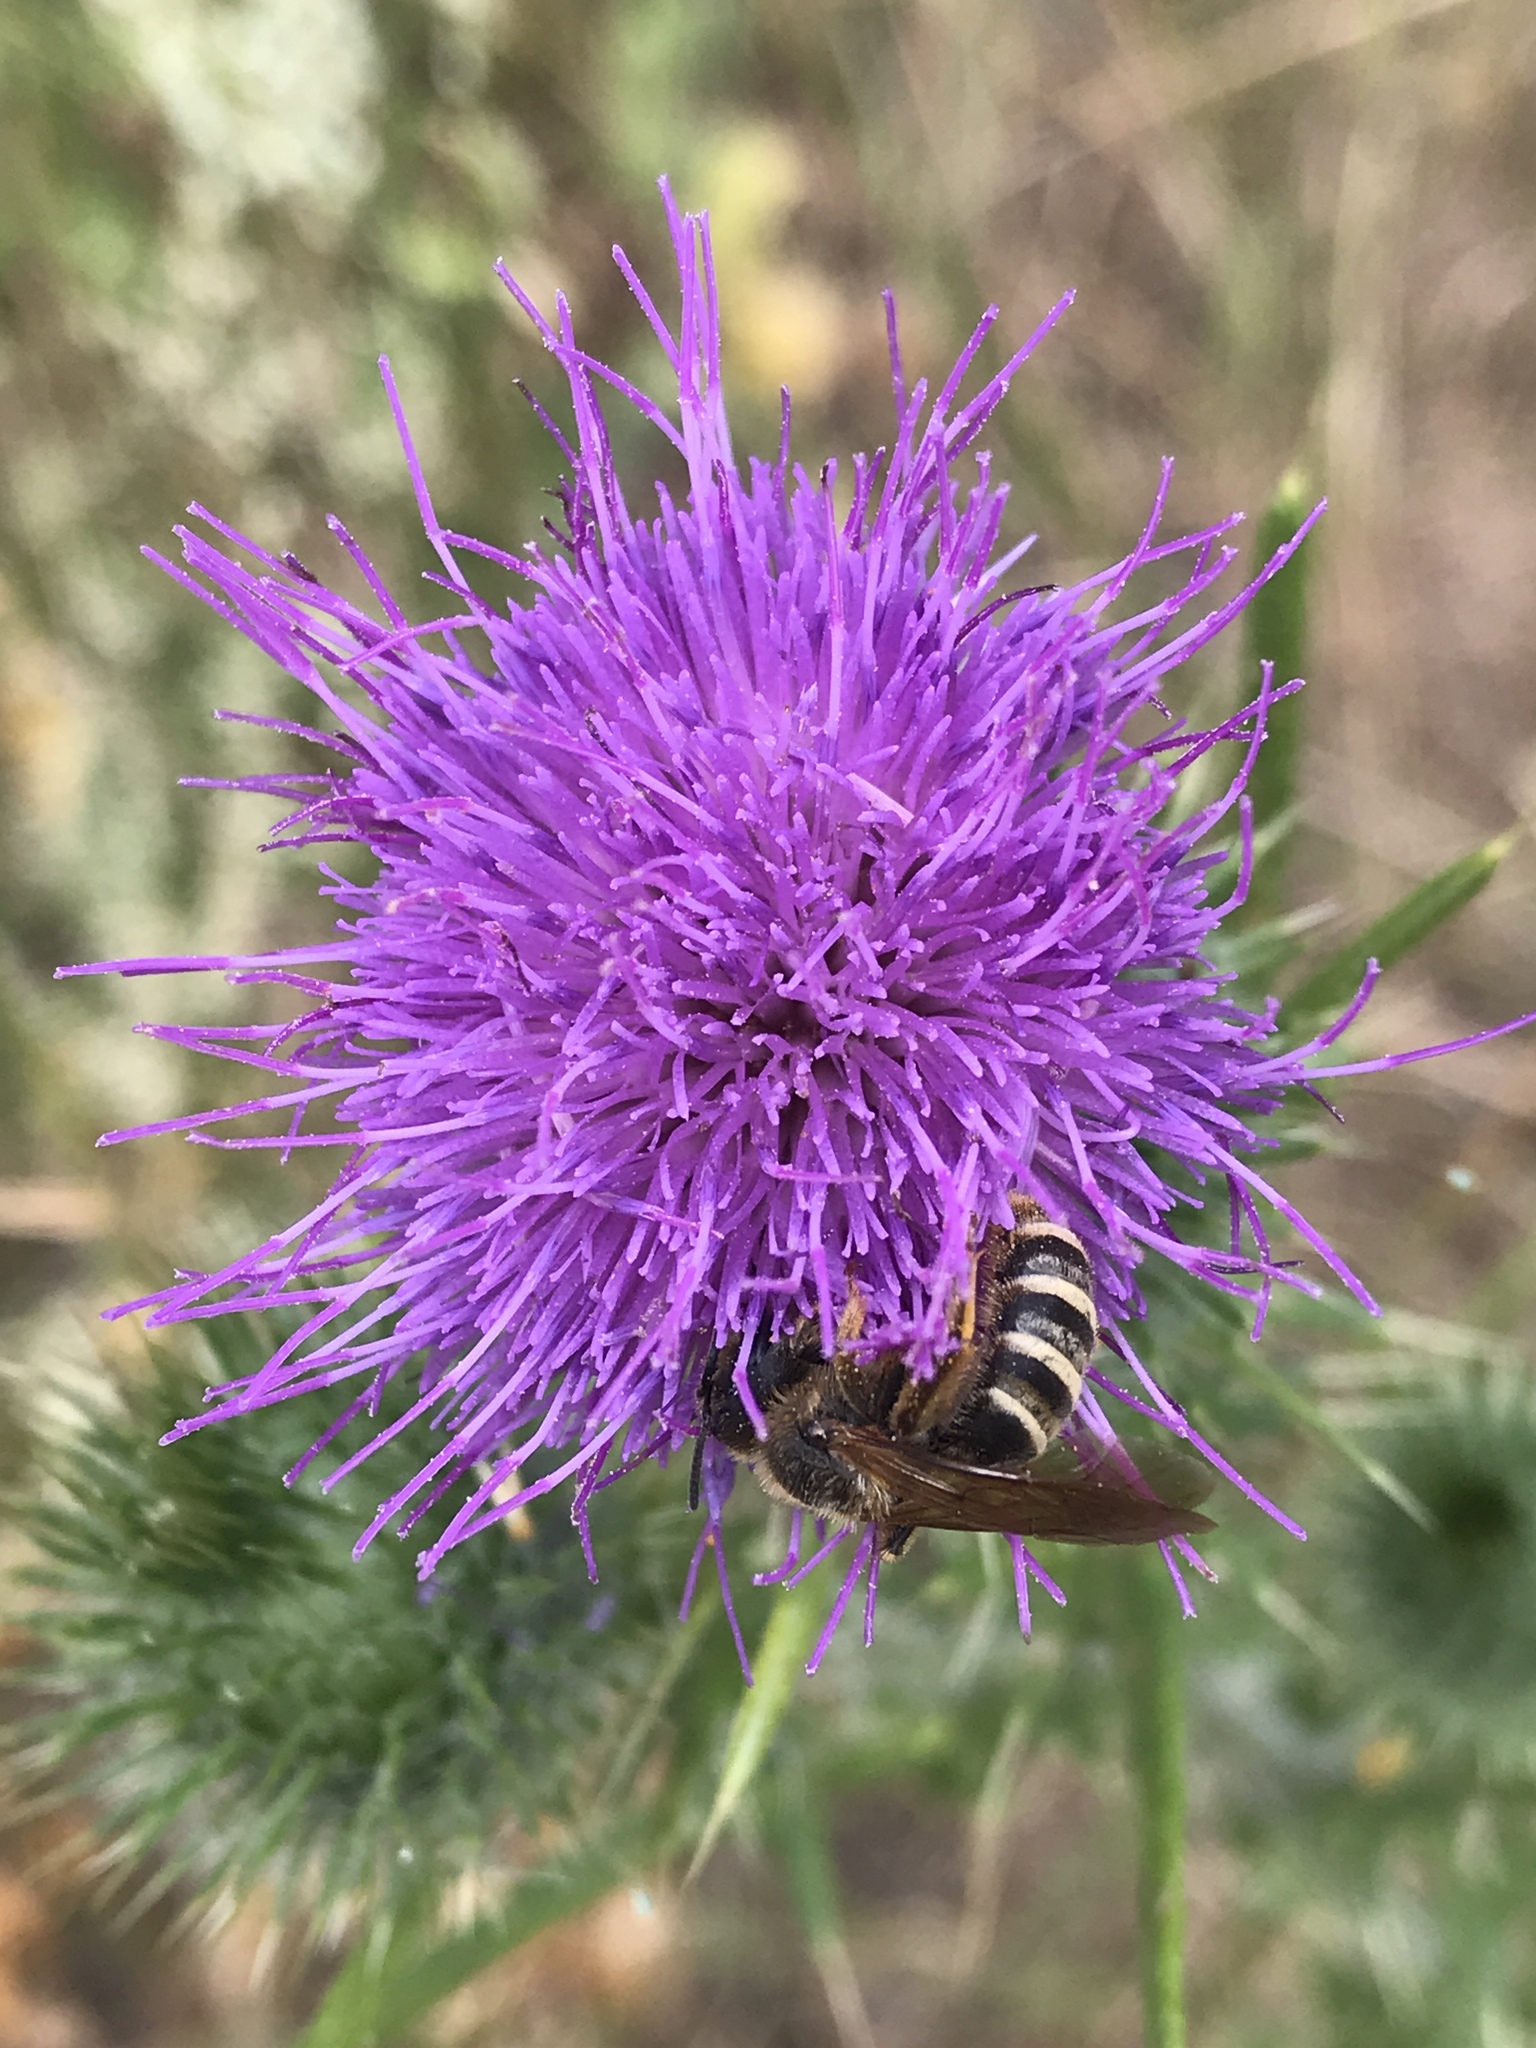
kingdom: Animalia
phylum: Arthropoda
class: Insecta
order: Hymenoptera
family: Halictidae
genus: Halictus
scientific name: Halictus scabiosae
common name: Great banded furrow bee
